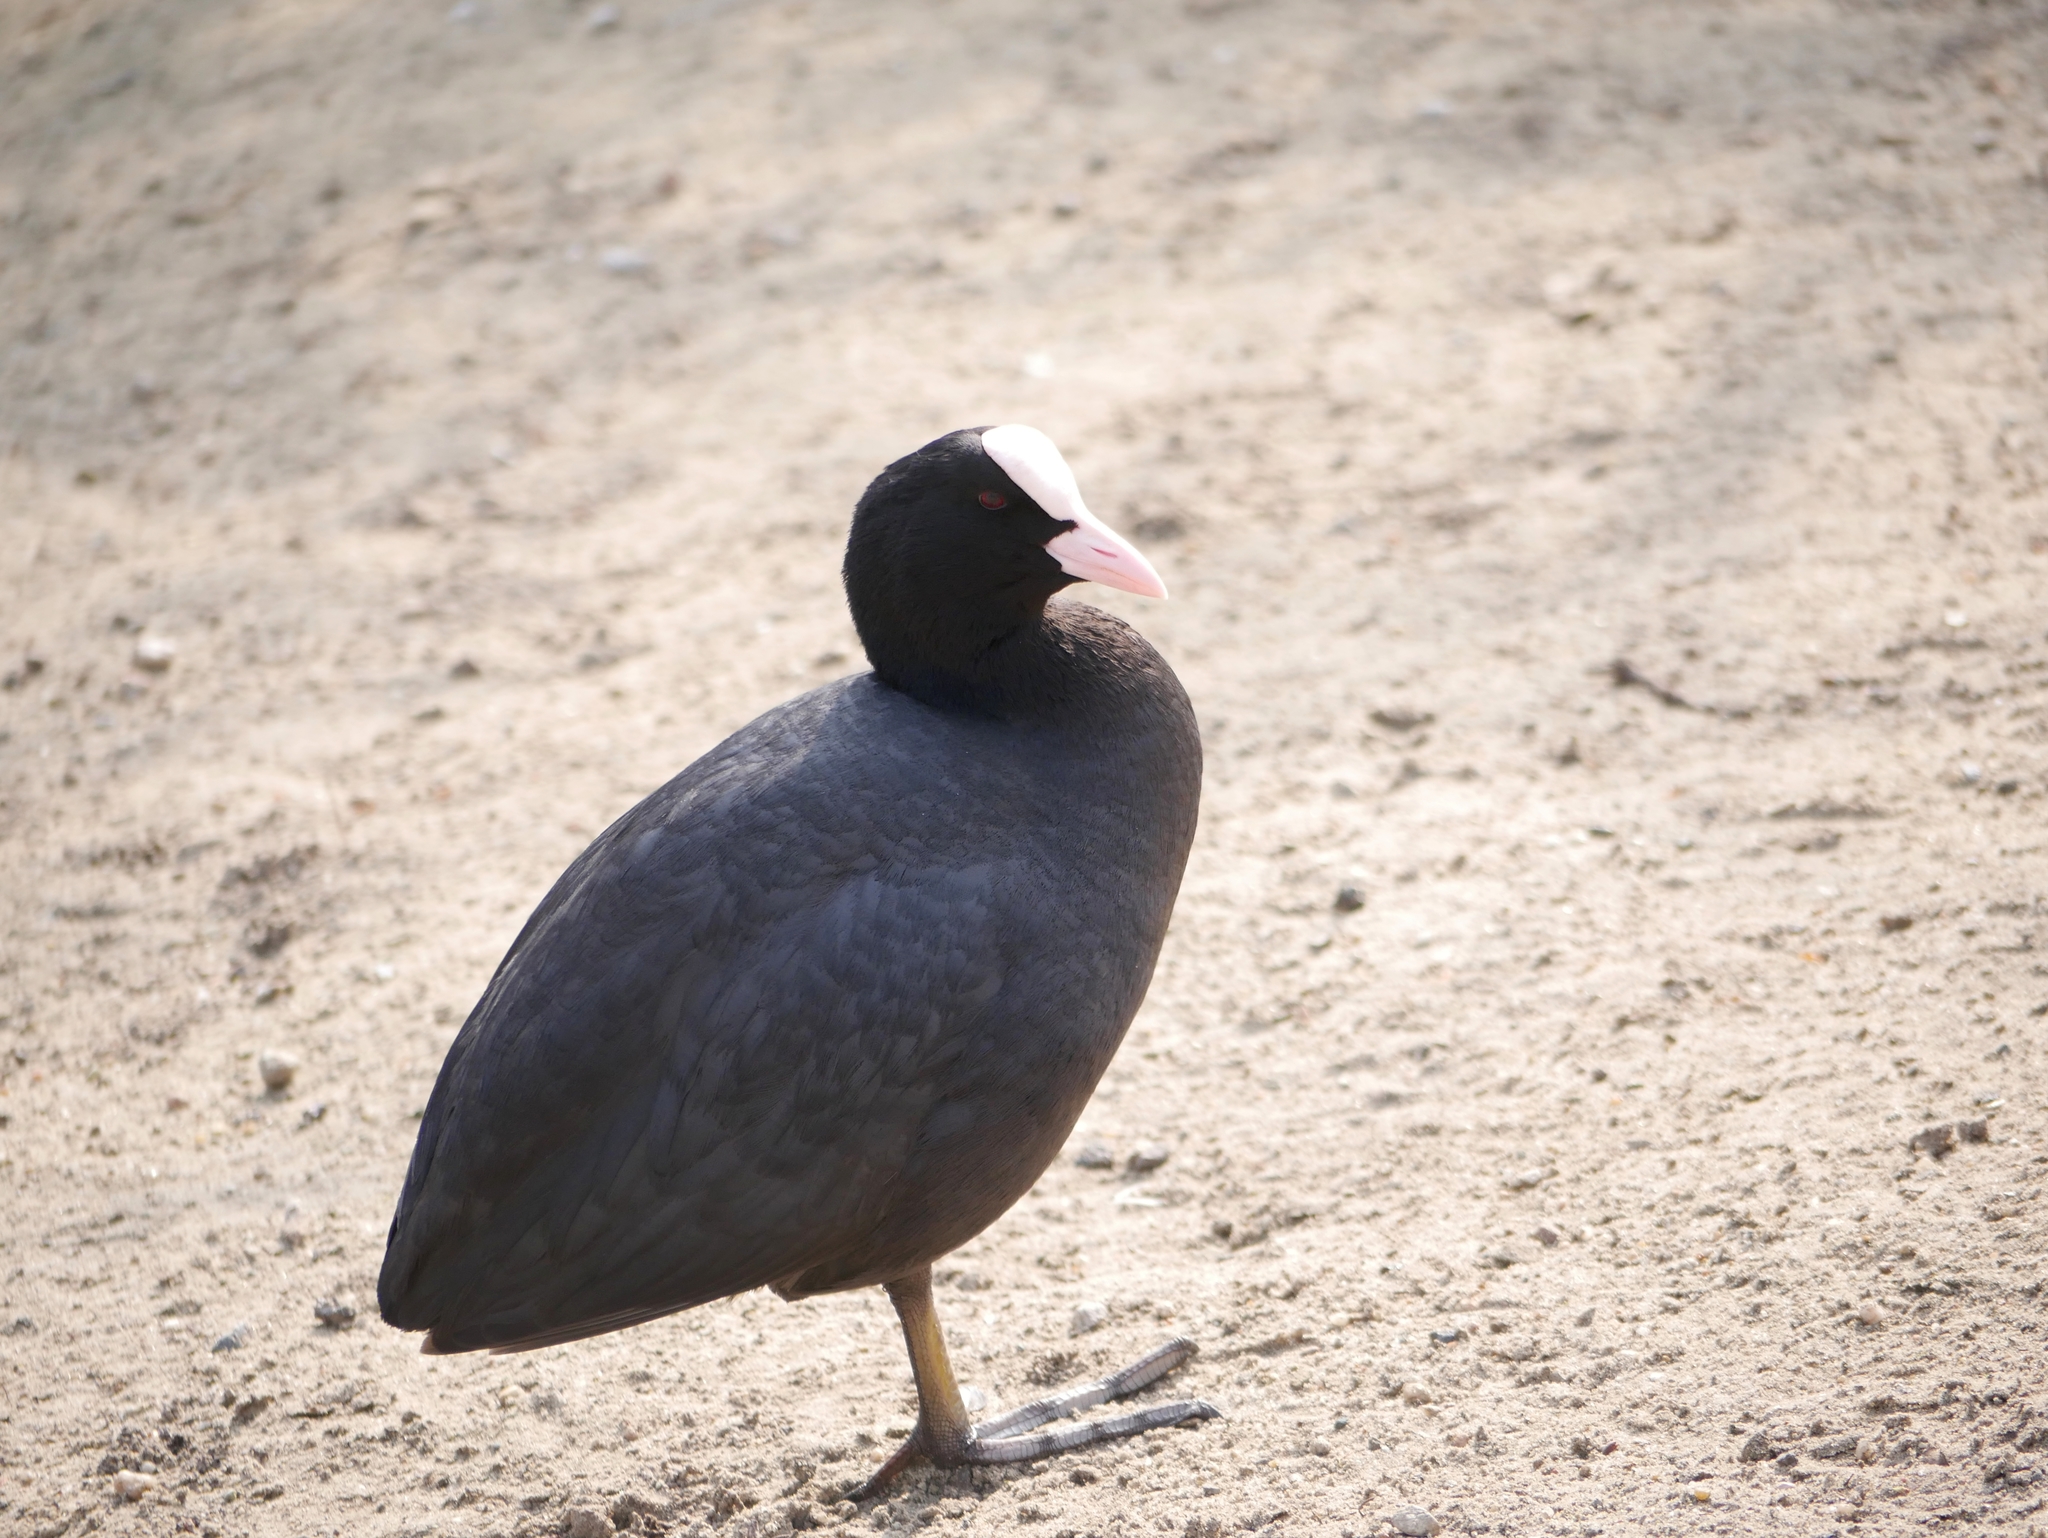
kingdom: Animalia
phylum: Chordata
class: Aves
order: Gruiformes
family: Rallidae
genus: Fulica
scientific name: Fulica atra
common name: Eurasian coot
